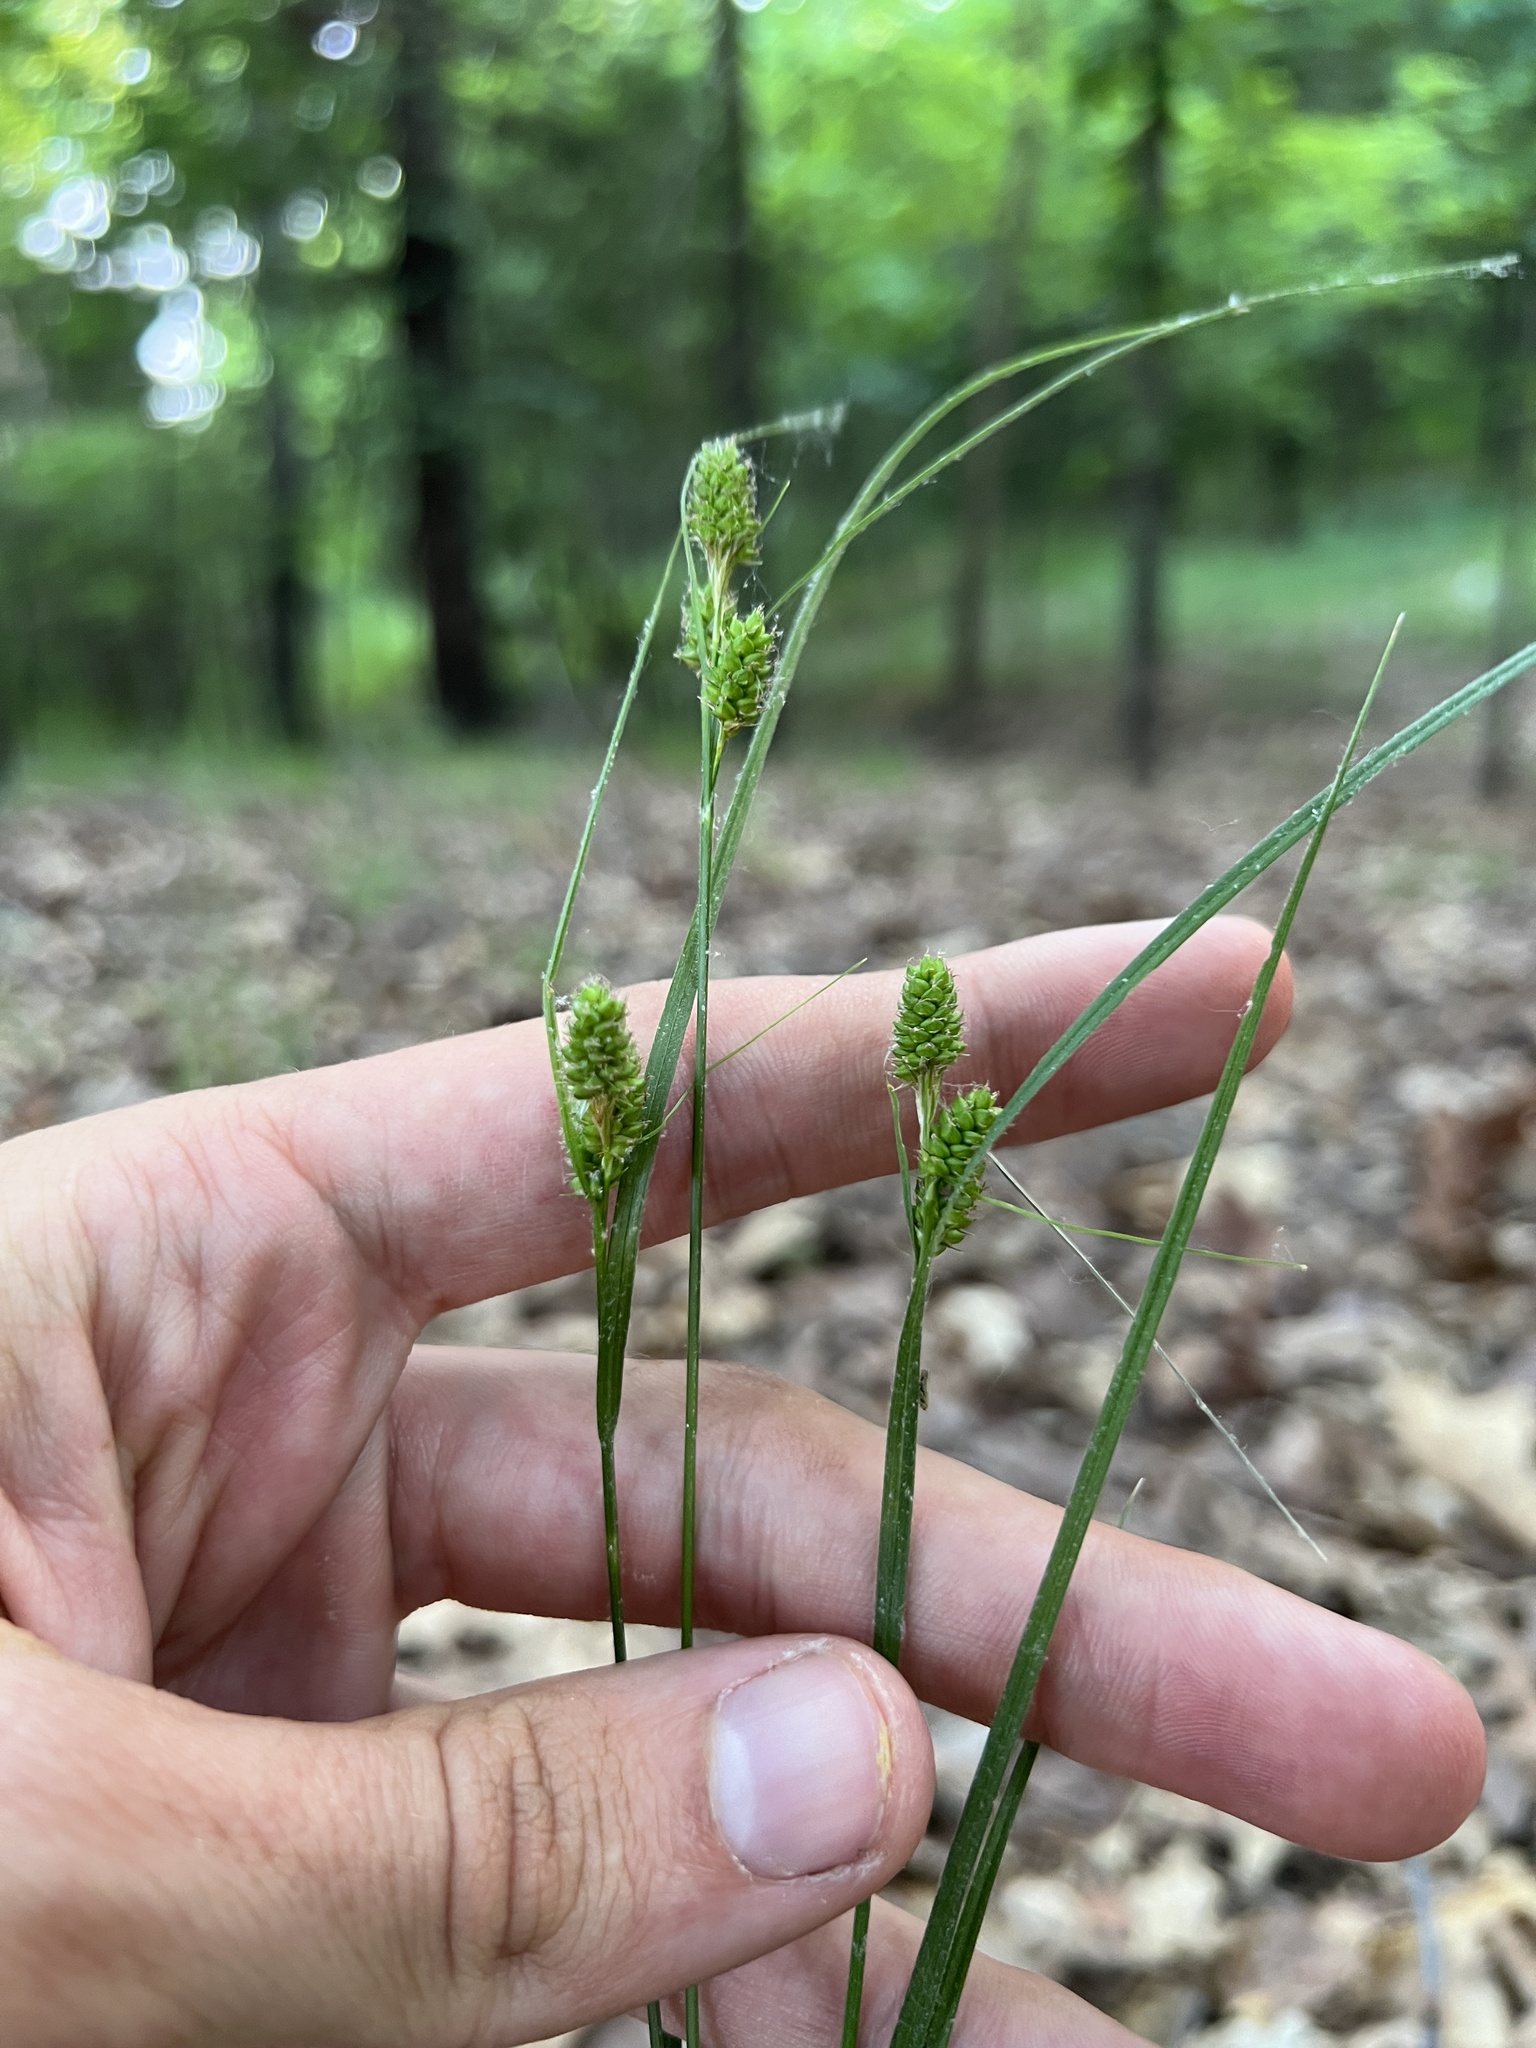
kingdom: Plantae
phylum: Tracheophyta
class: Liliopsida
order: Poales
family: Cyperaceae
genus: Carex
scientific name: Carex hirsutella
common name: Fuzzy wuzzy sedge
